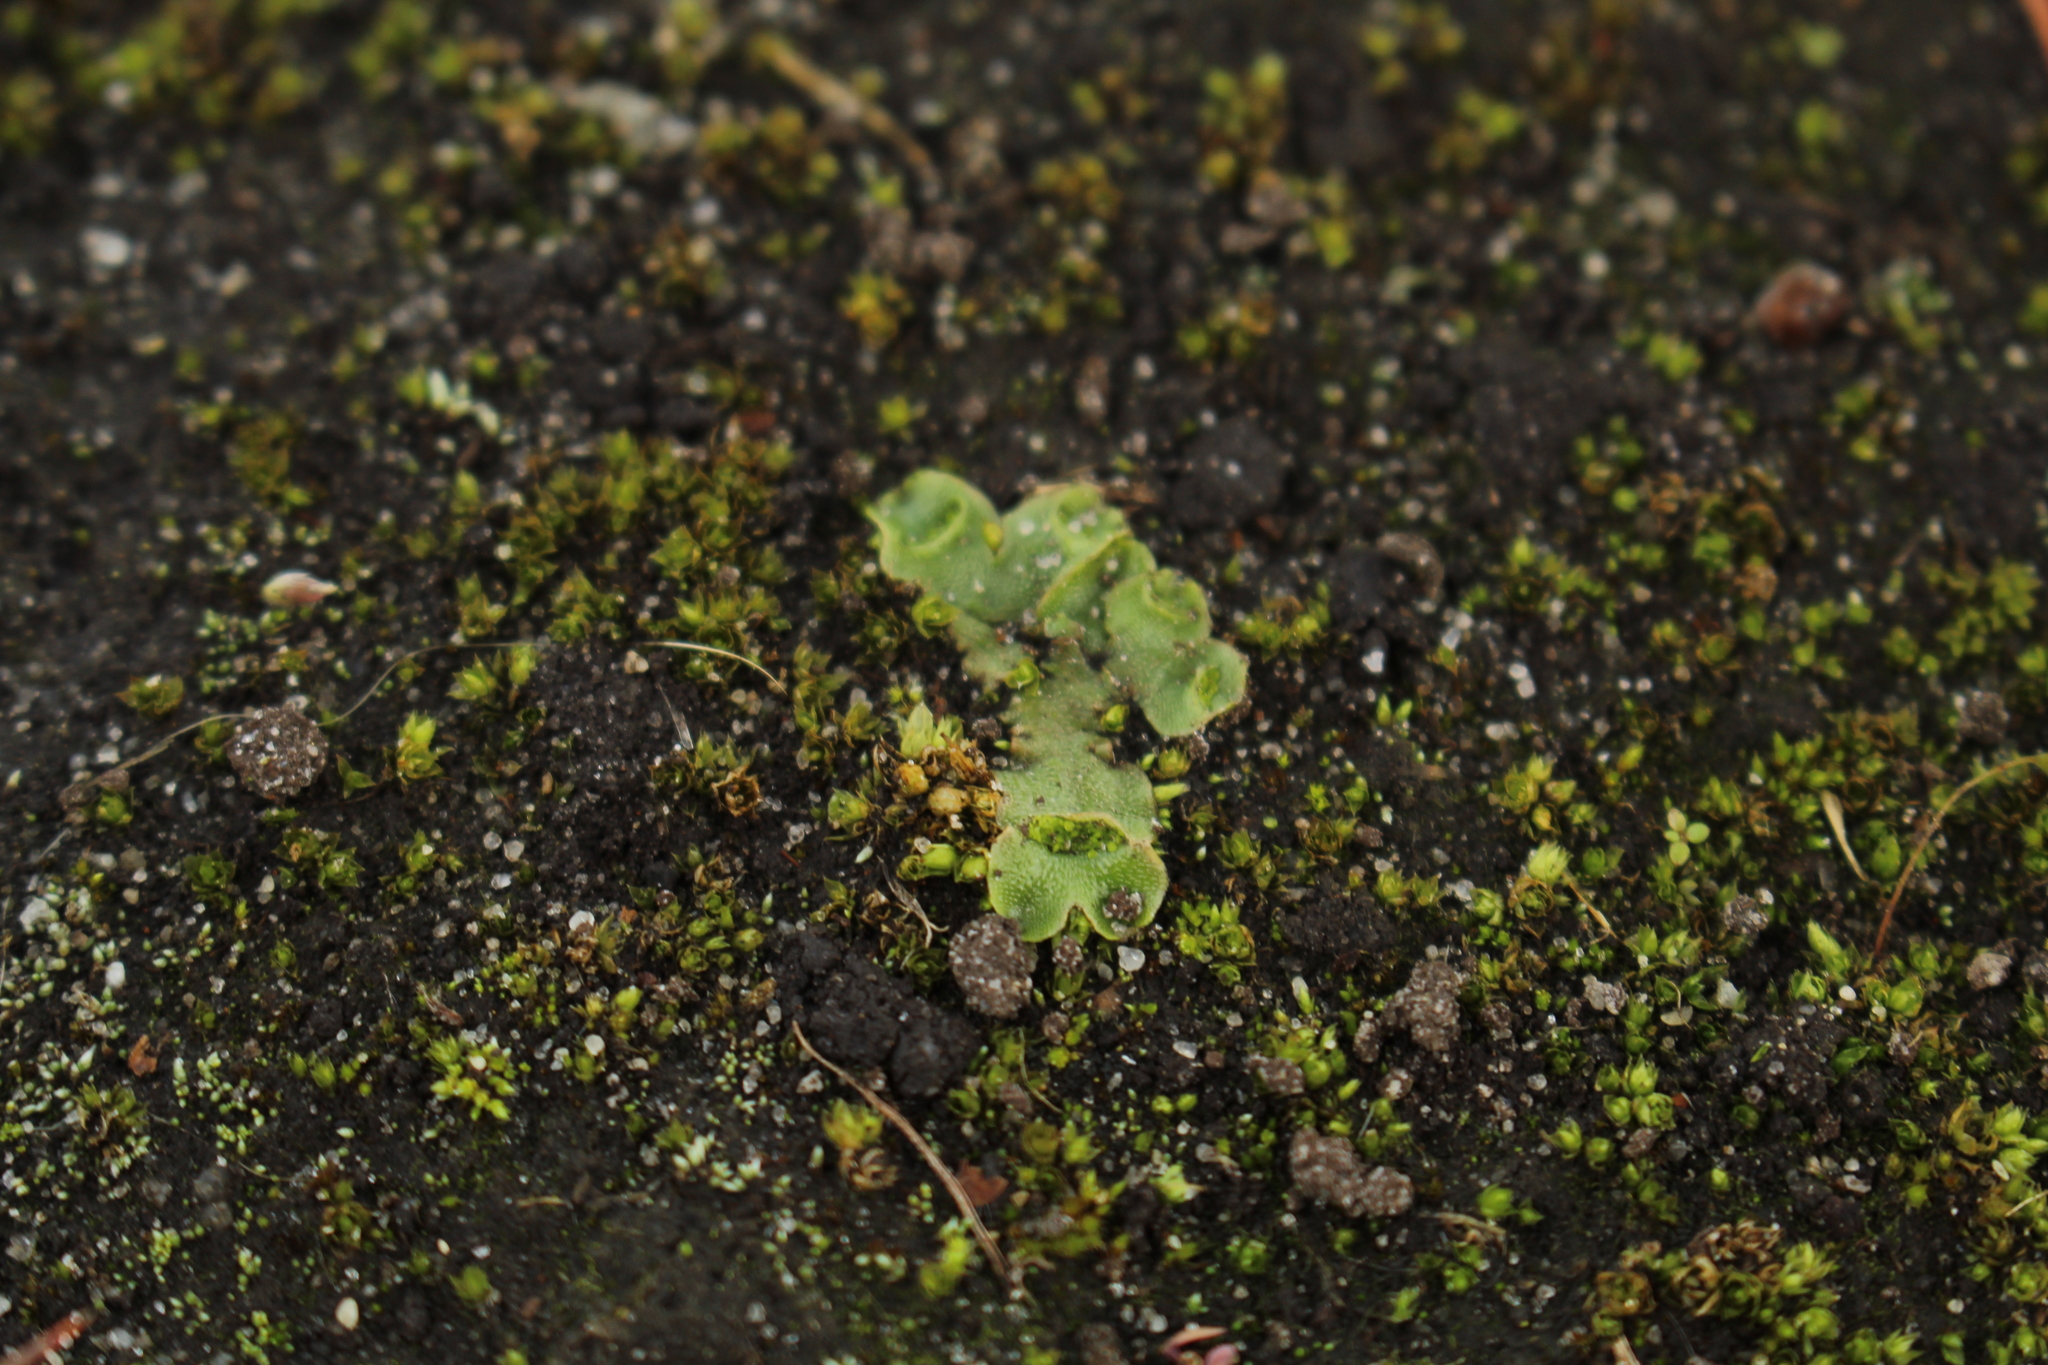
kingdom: Plantae
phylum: Marchantiophyta
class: Marchantiopsida
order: Lunulariales
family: Lunulariaceae
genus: Lunularia
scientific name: Lunularia cruciata
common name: Crescent-cup liverwort
